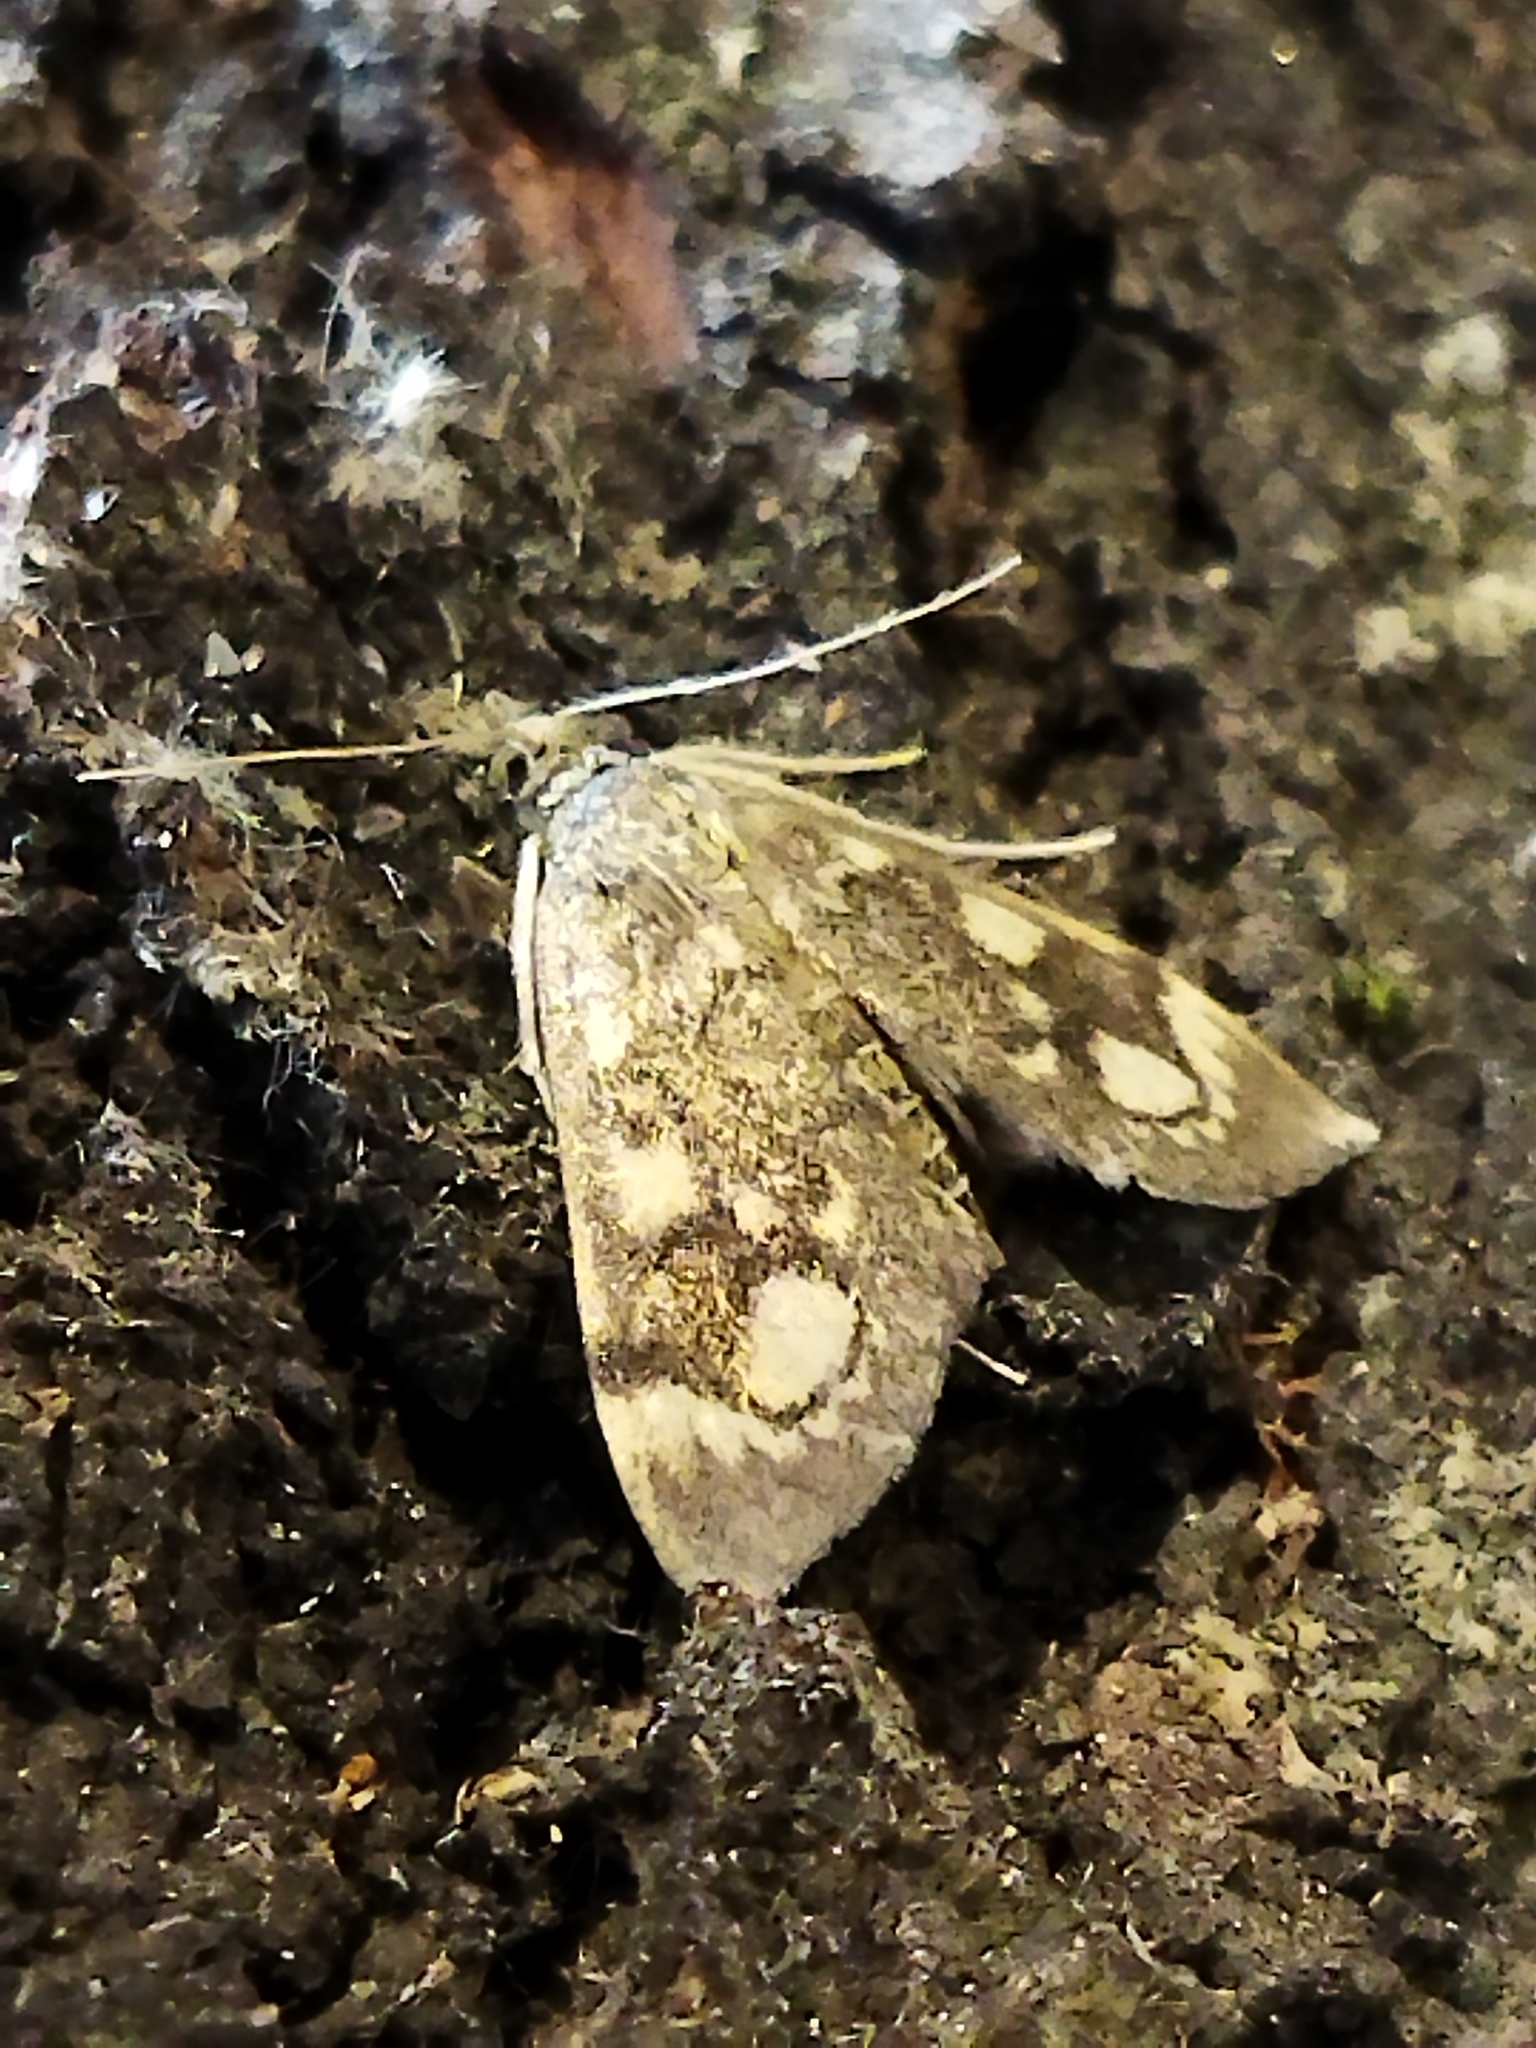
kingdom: Animalia
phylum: Arthropoda
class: Insecta
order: Lepidoptera
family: Crambidae
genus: Anania
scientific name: Anania coronata
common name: Elder pearl
